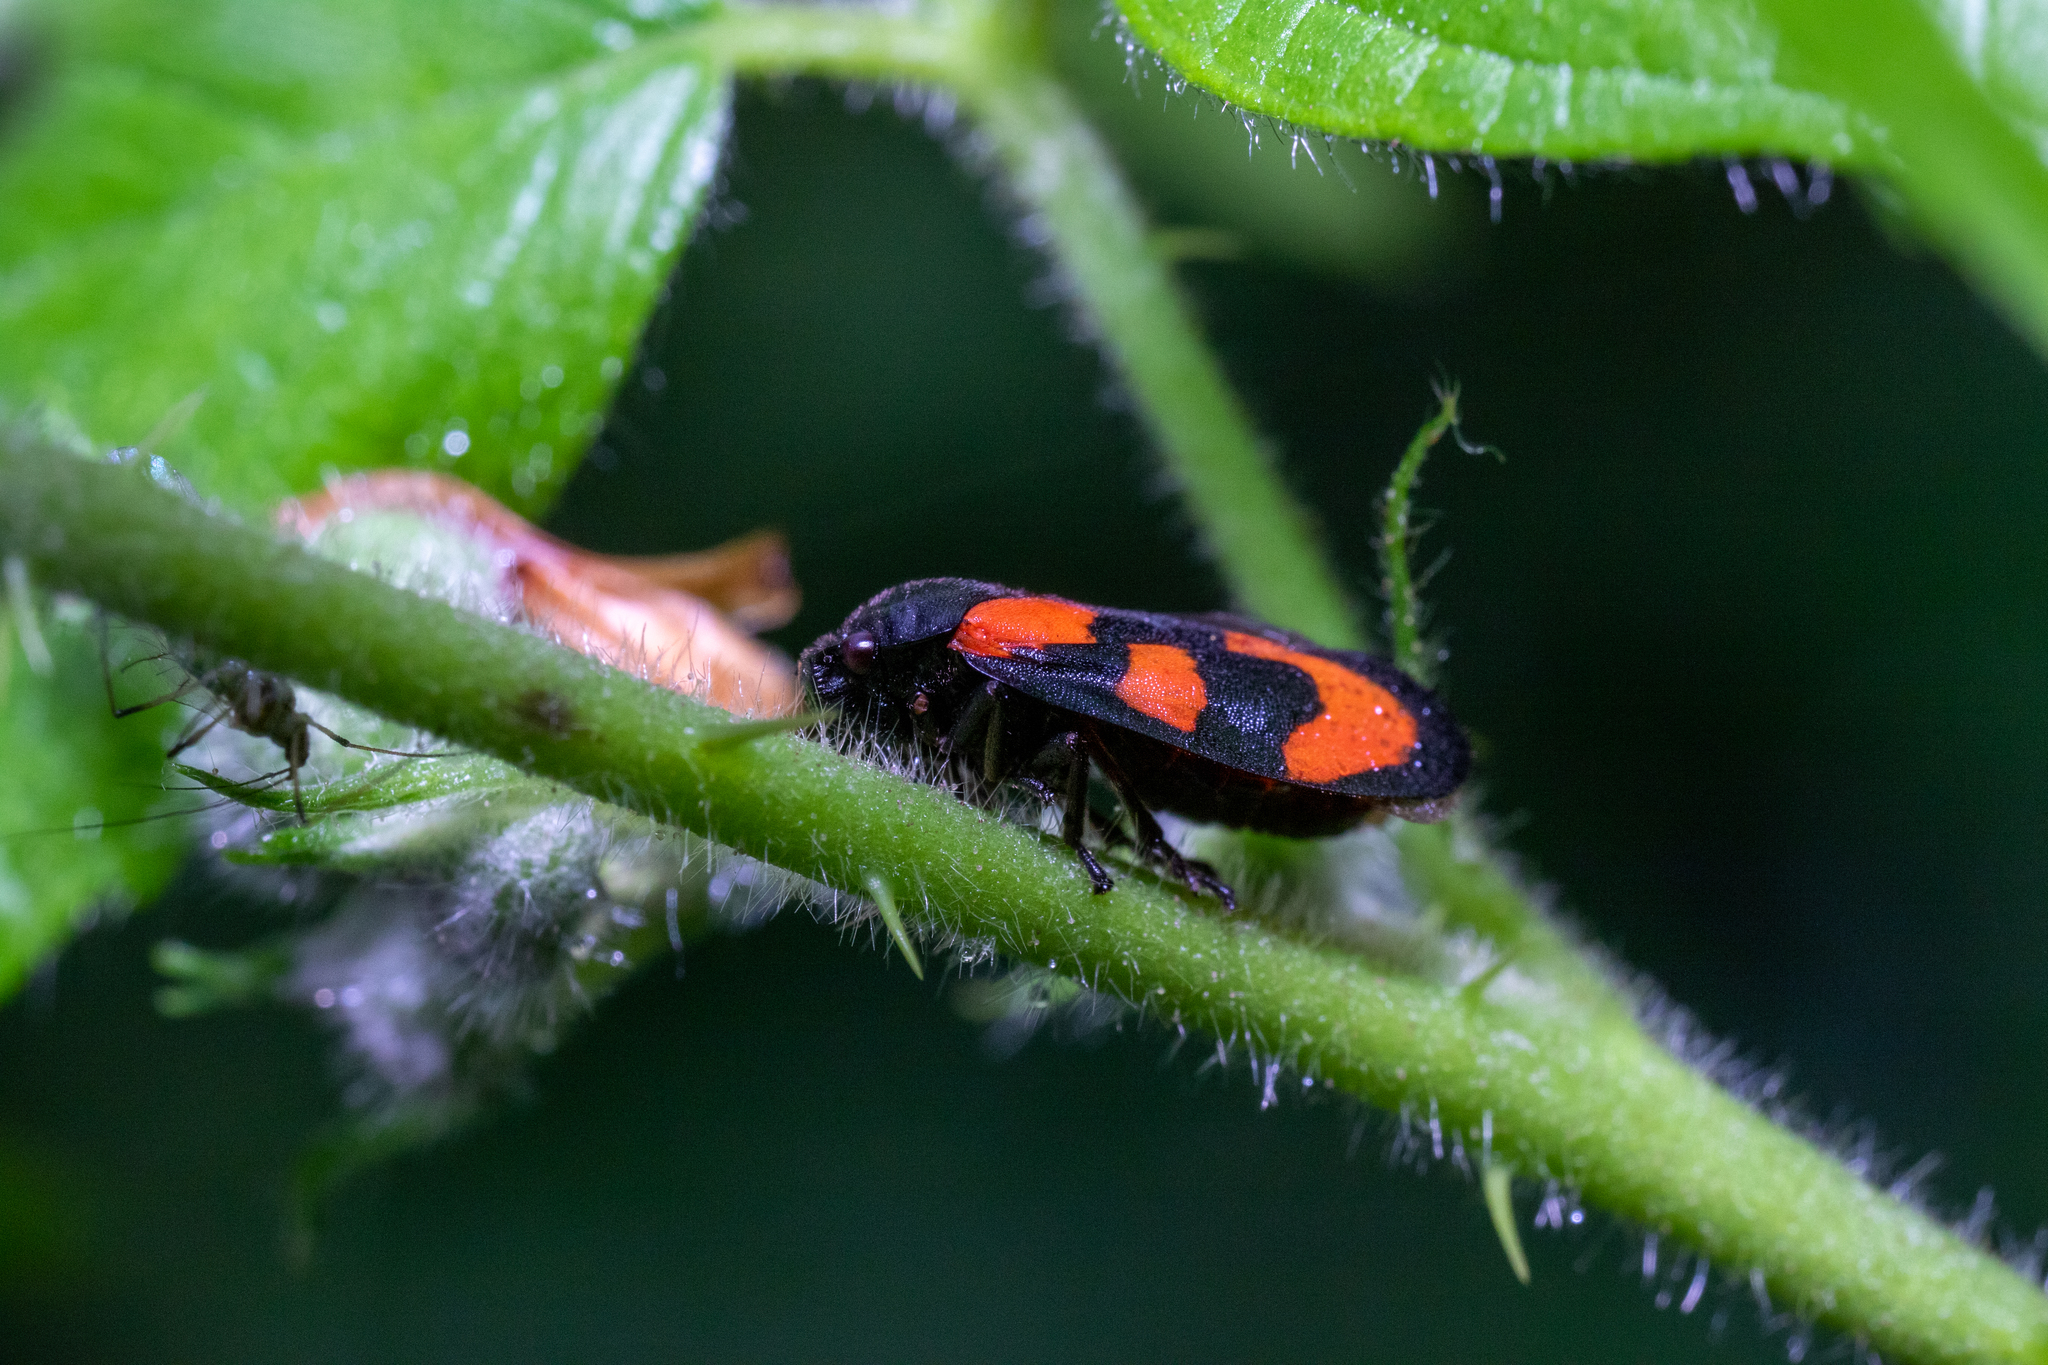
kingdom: Animalia
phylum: Arthropoda
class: Insecta
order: Hemiptera
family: Cercopidae
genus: Cercopis
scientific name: Cercopis vulnerata
